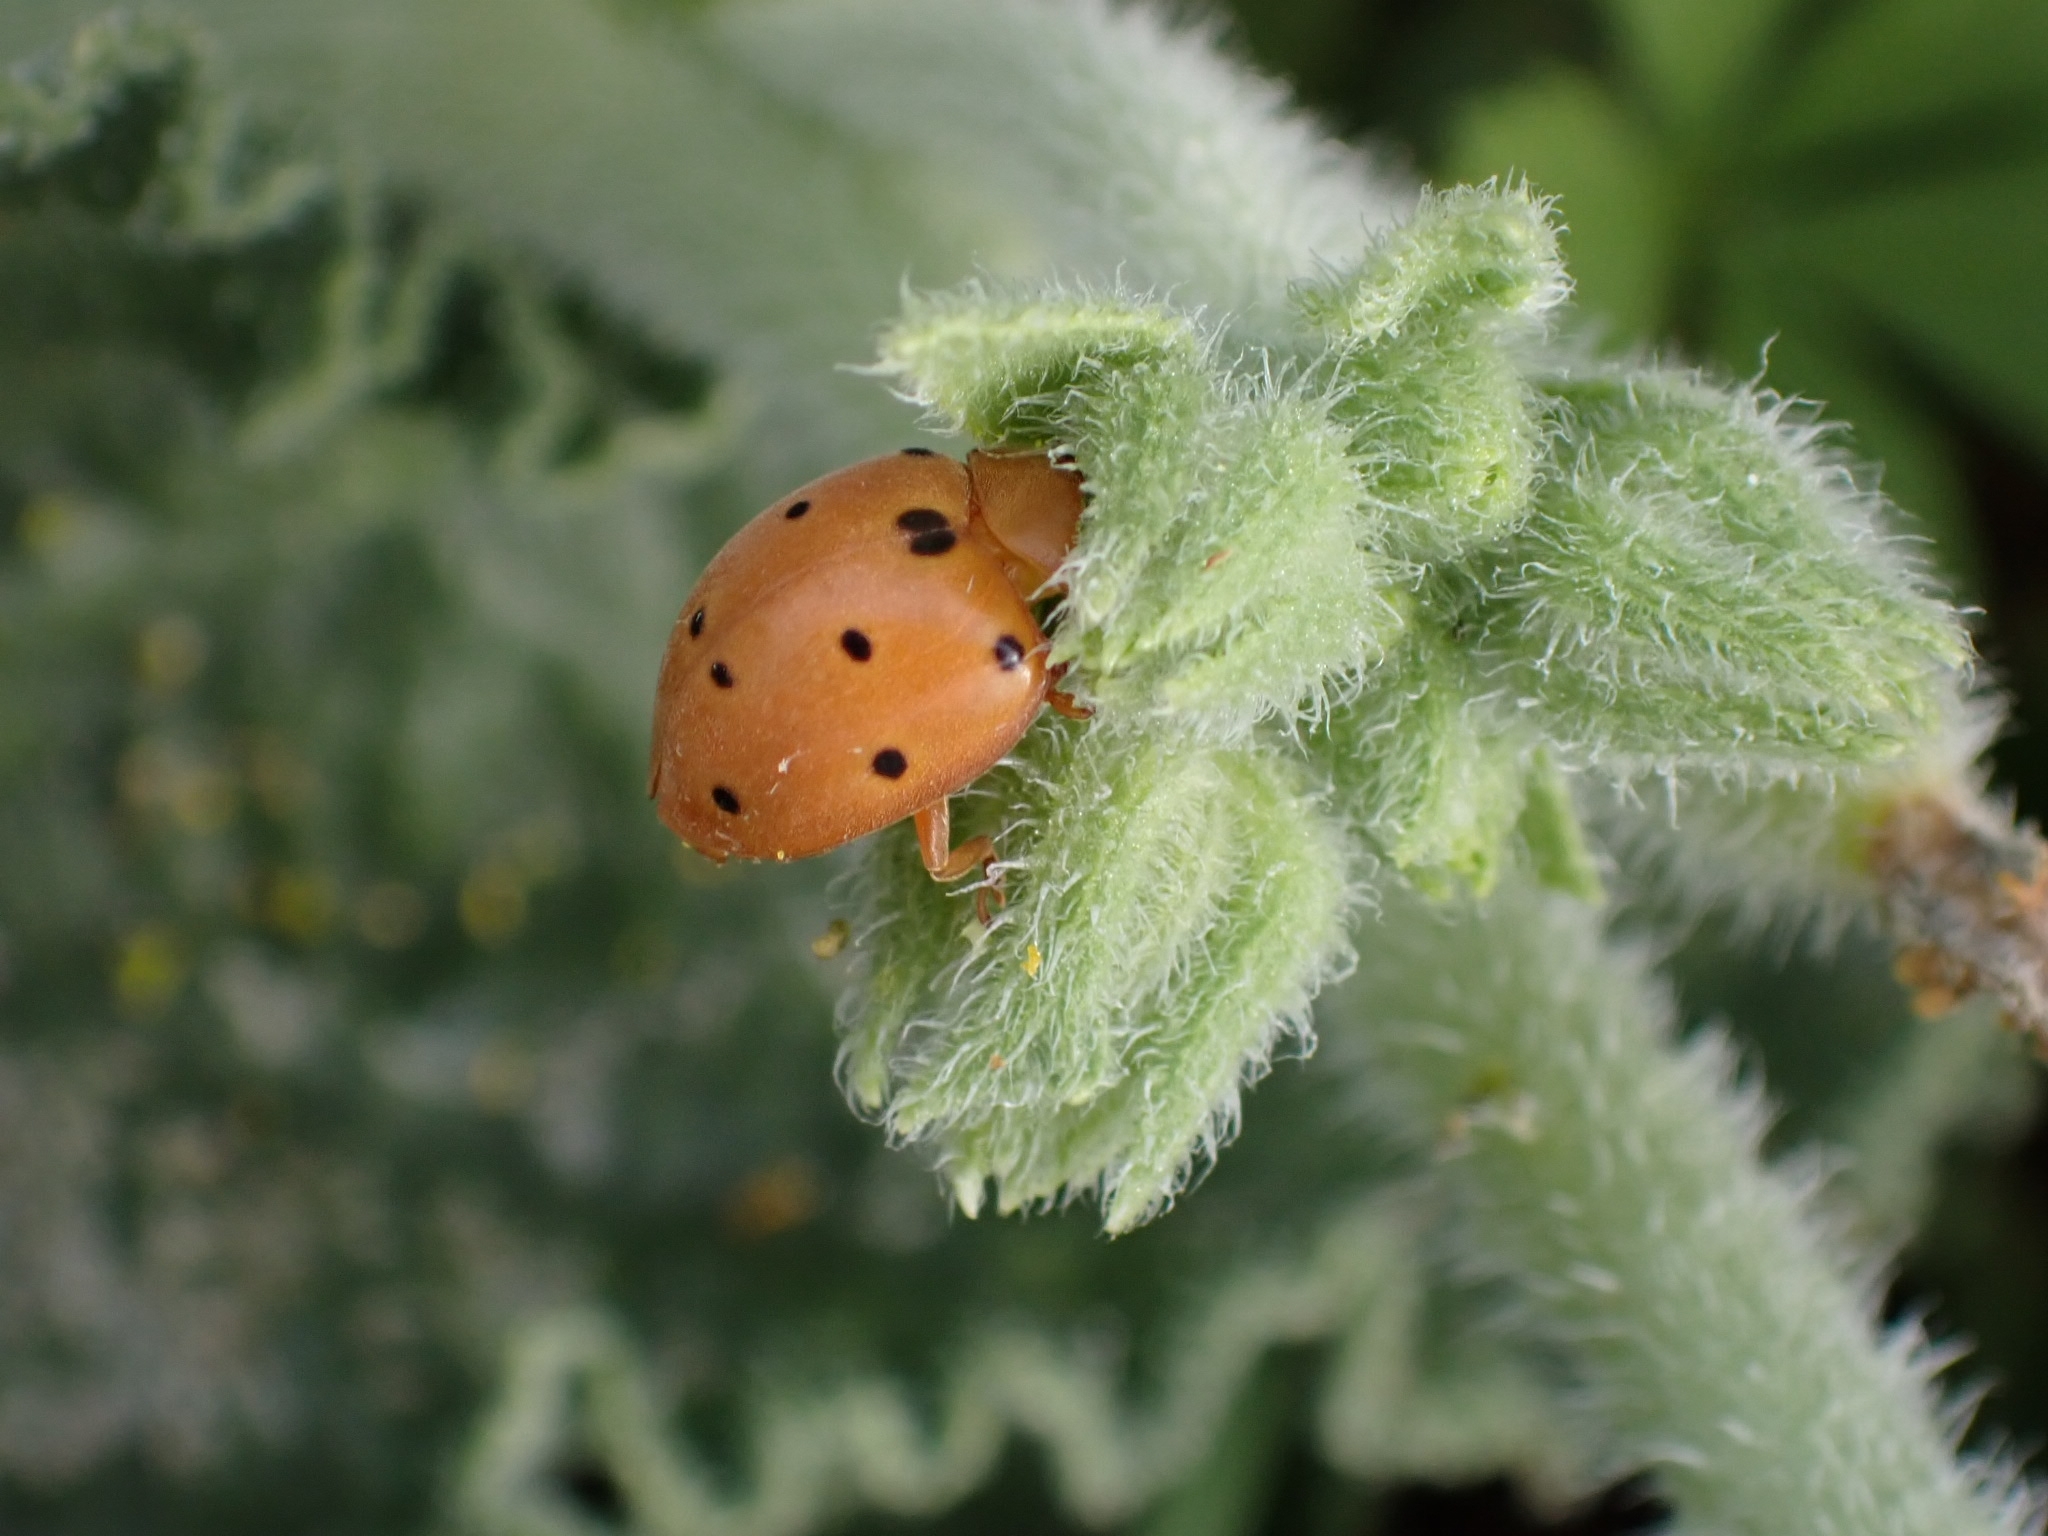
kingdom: Animalia
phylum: Arthropoda
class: Insecta
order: Coleoptera
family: Coccinellidae
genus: Henosepilachna
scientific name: Henosepilachna argus
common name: Bryony ladybird
